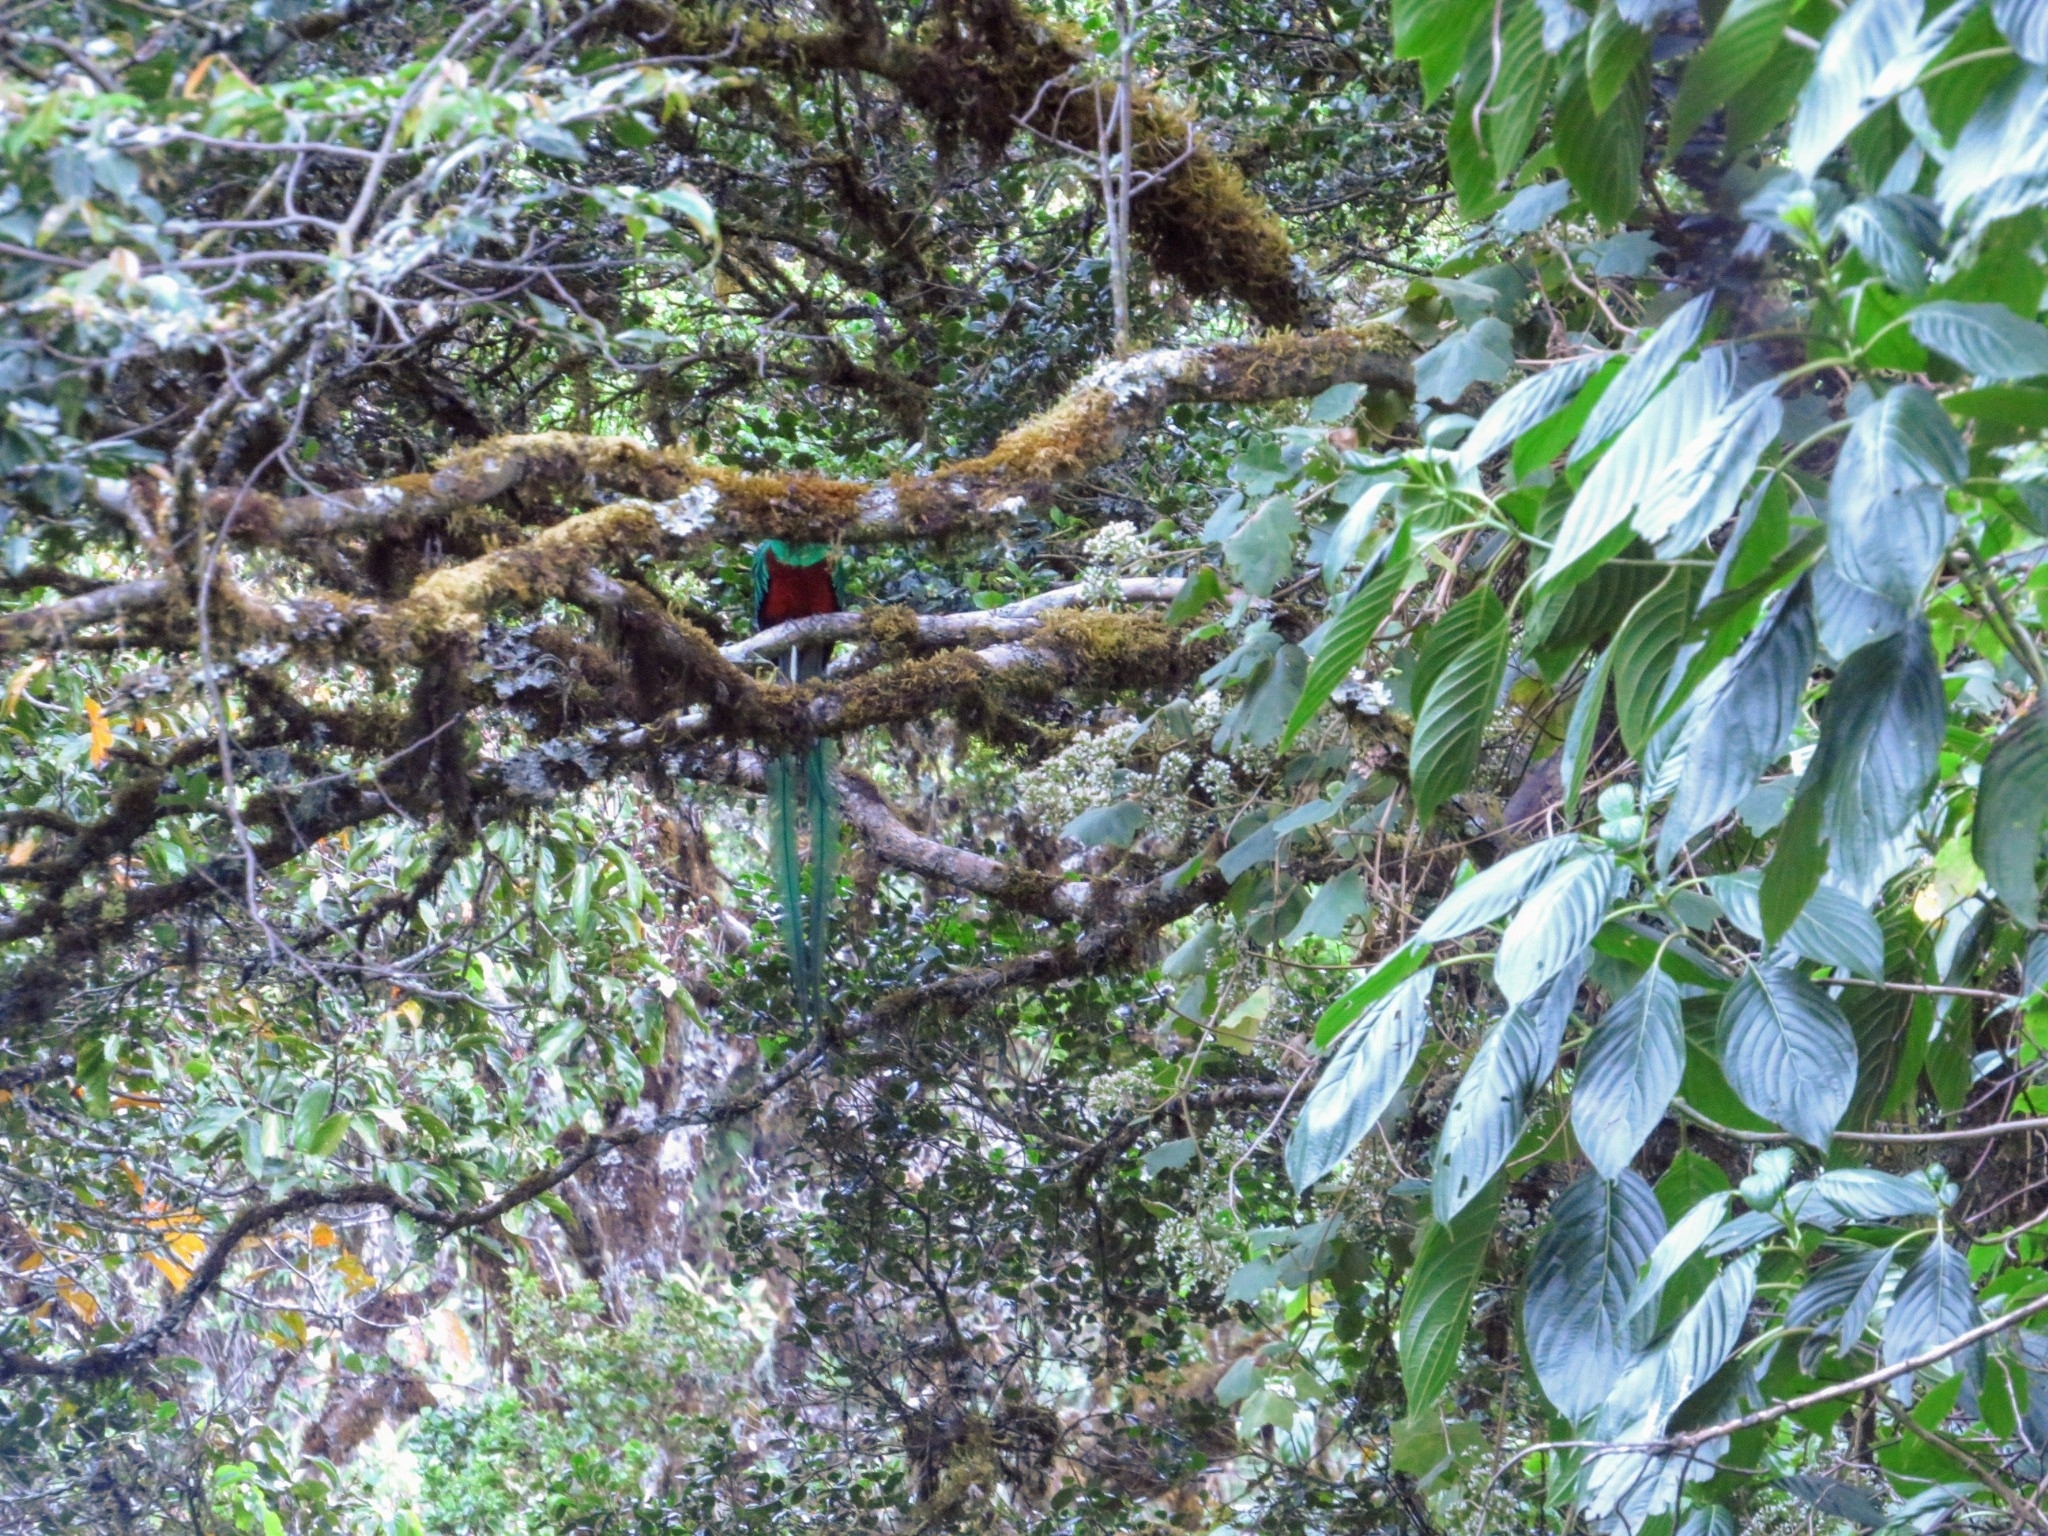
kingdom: Animalia
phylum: Chordata
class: Aves
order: Trogoniformes
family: Trogonidae
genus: Pharomachrus
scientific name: Pharomachrus mocinno
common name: Resplendent quetzal
